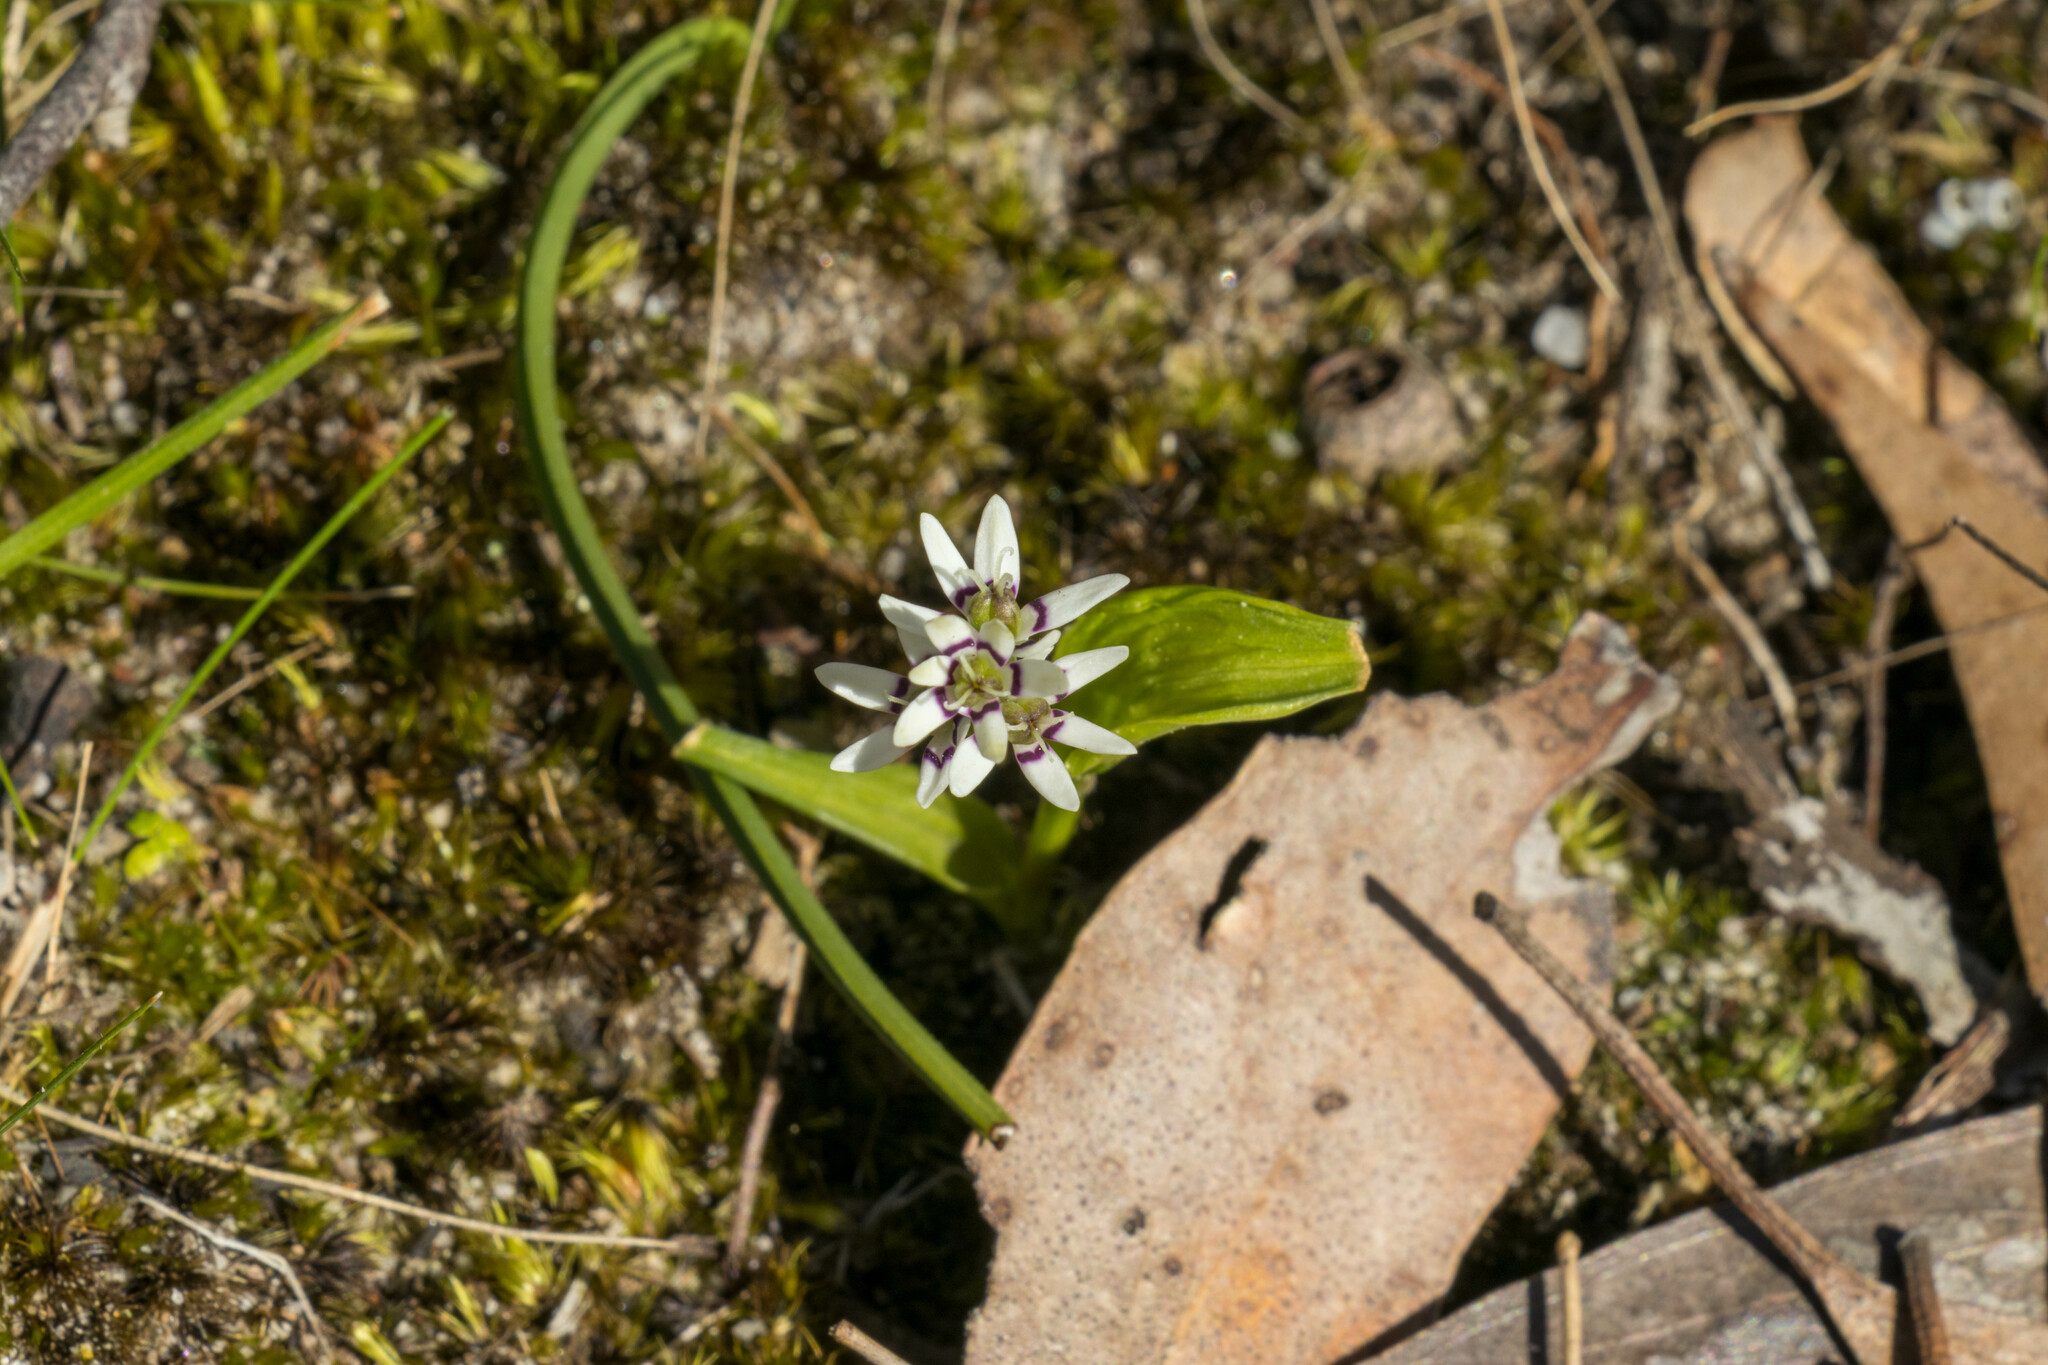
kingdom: Plantae
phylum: Tracheophyta
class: Liliopsida
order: Liliales
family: Colchicaceae
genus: Wurmbea
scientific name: Wurmbea dioica
